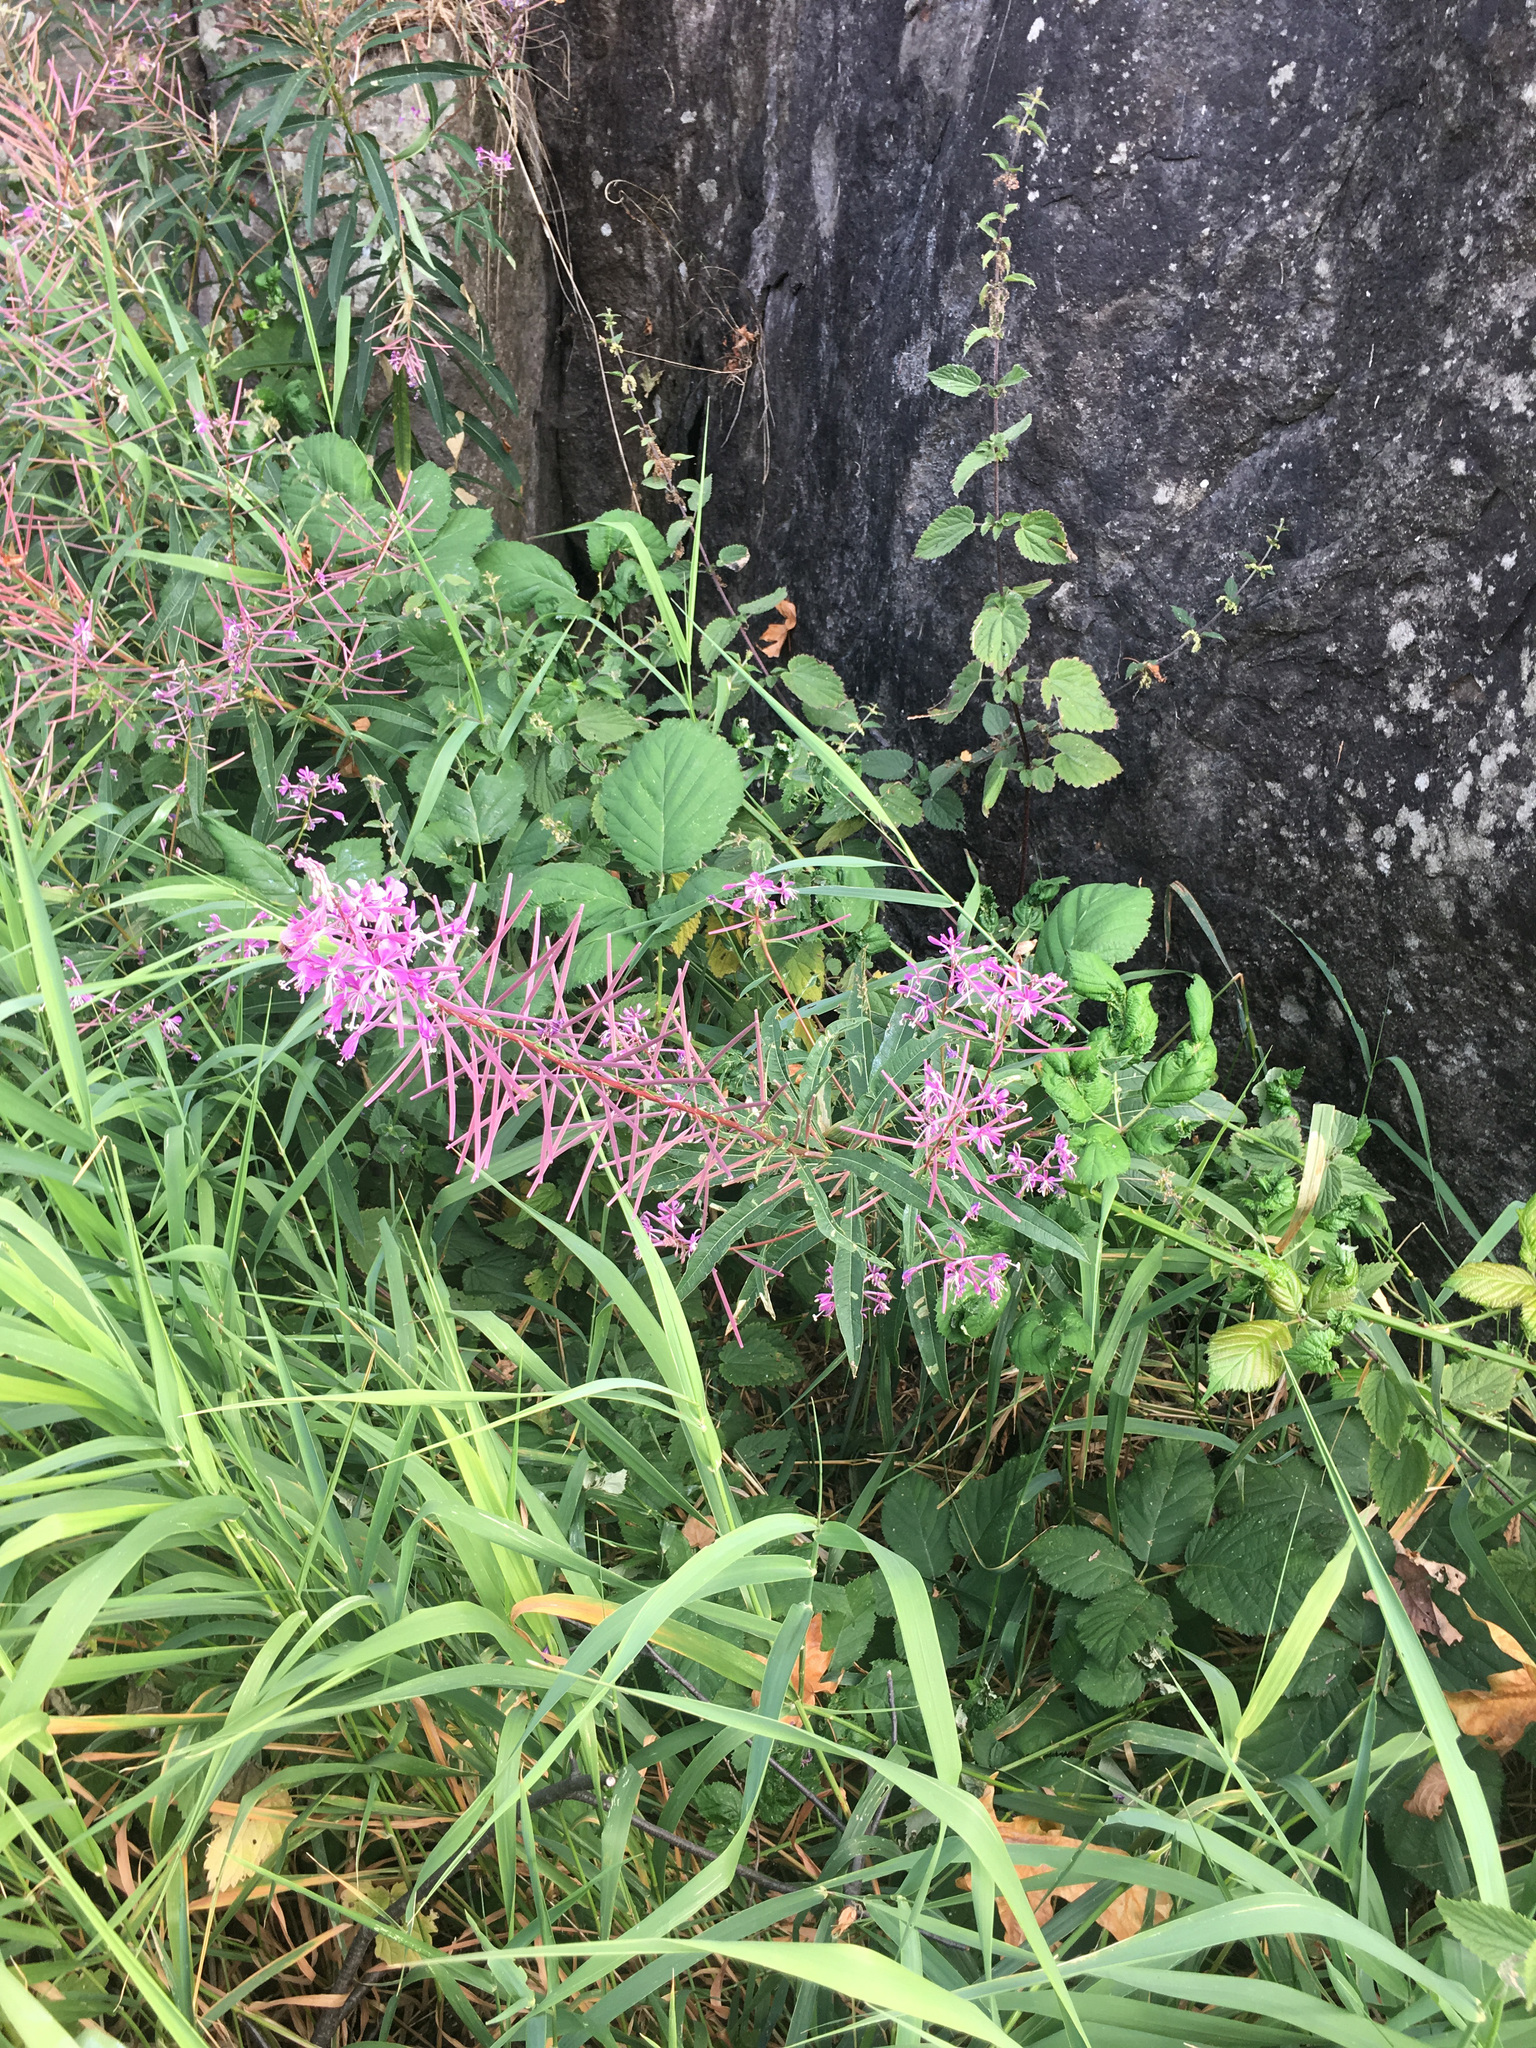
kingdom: Plantae
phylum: Tracheophyta
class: Magnoliopsida
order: Myrtales
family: Onagraceae
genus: Chamaenerion
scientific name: Chamaenerion angustifolium
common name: Fireweed
